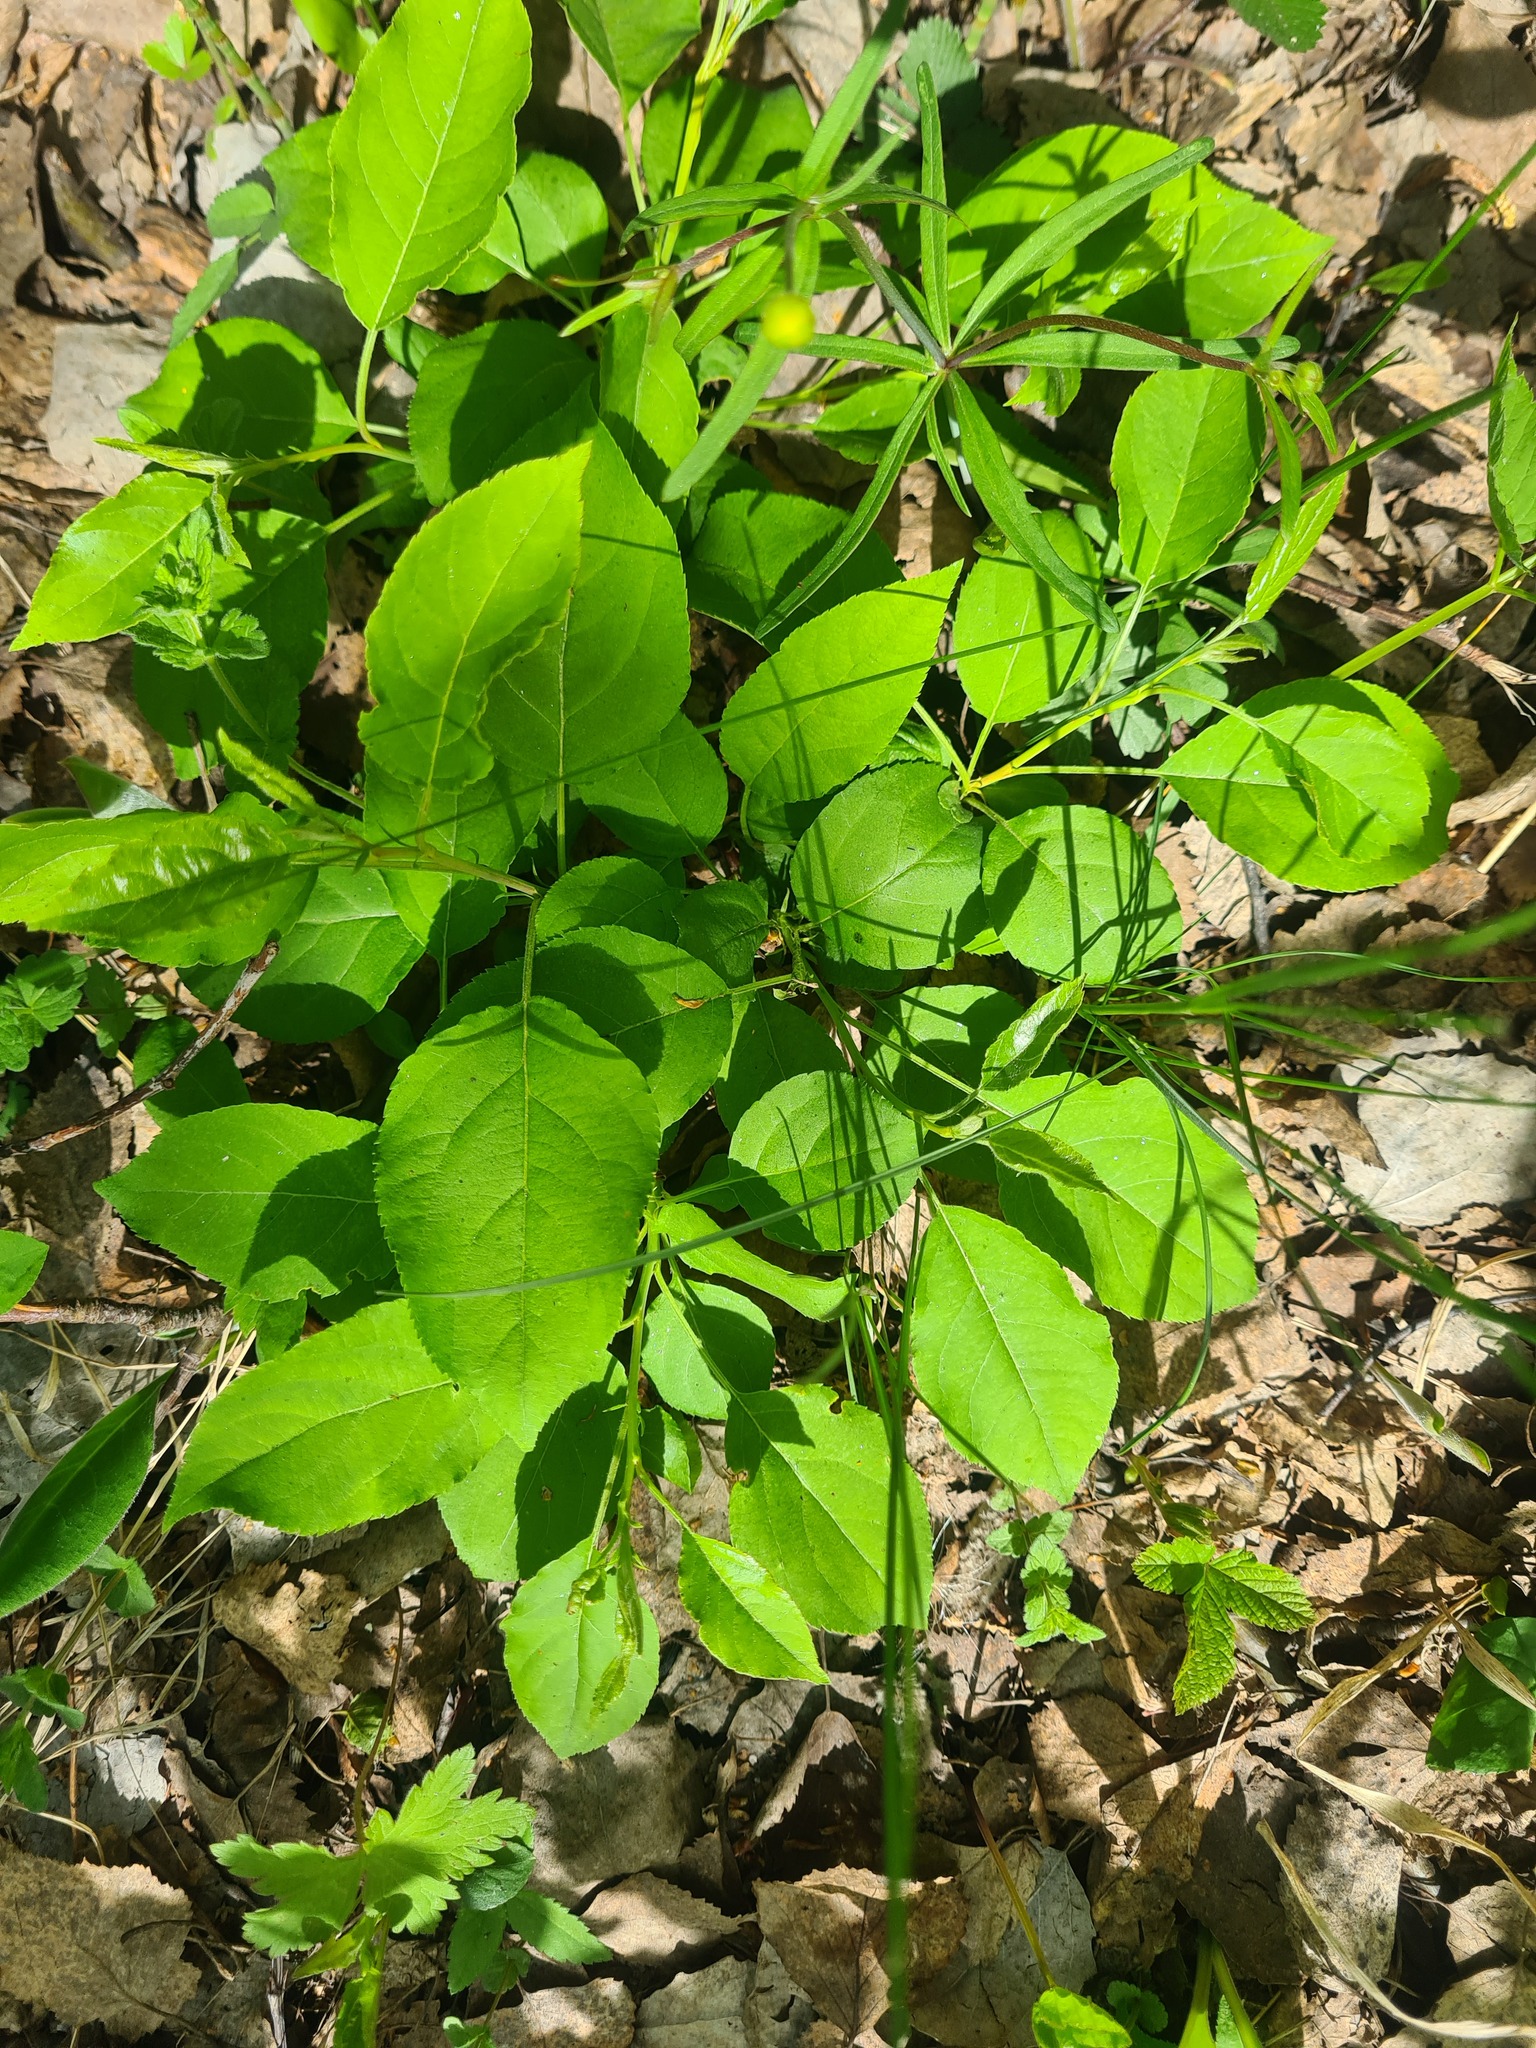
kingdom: Plantae
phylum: Tracheophyta
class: Magnoliopsida
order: Rosales
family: Rosaceae
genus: Malus
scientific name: Malus baccata
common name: Siberian crab
